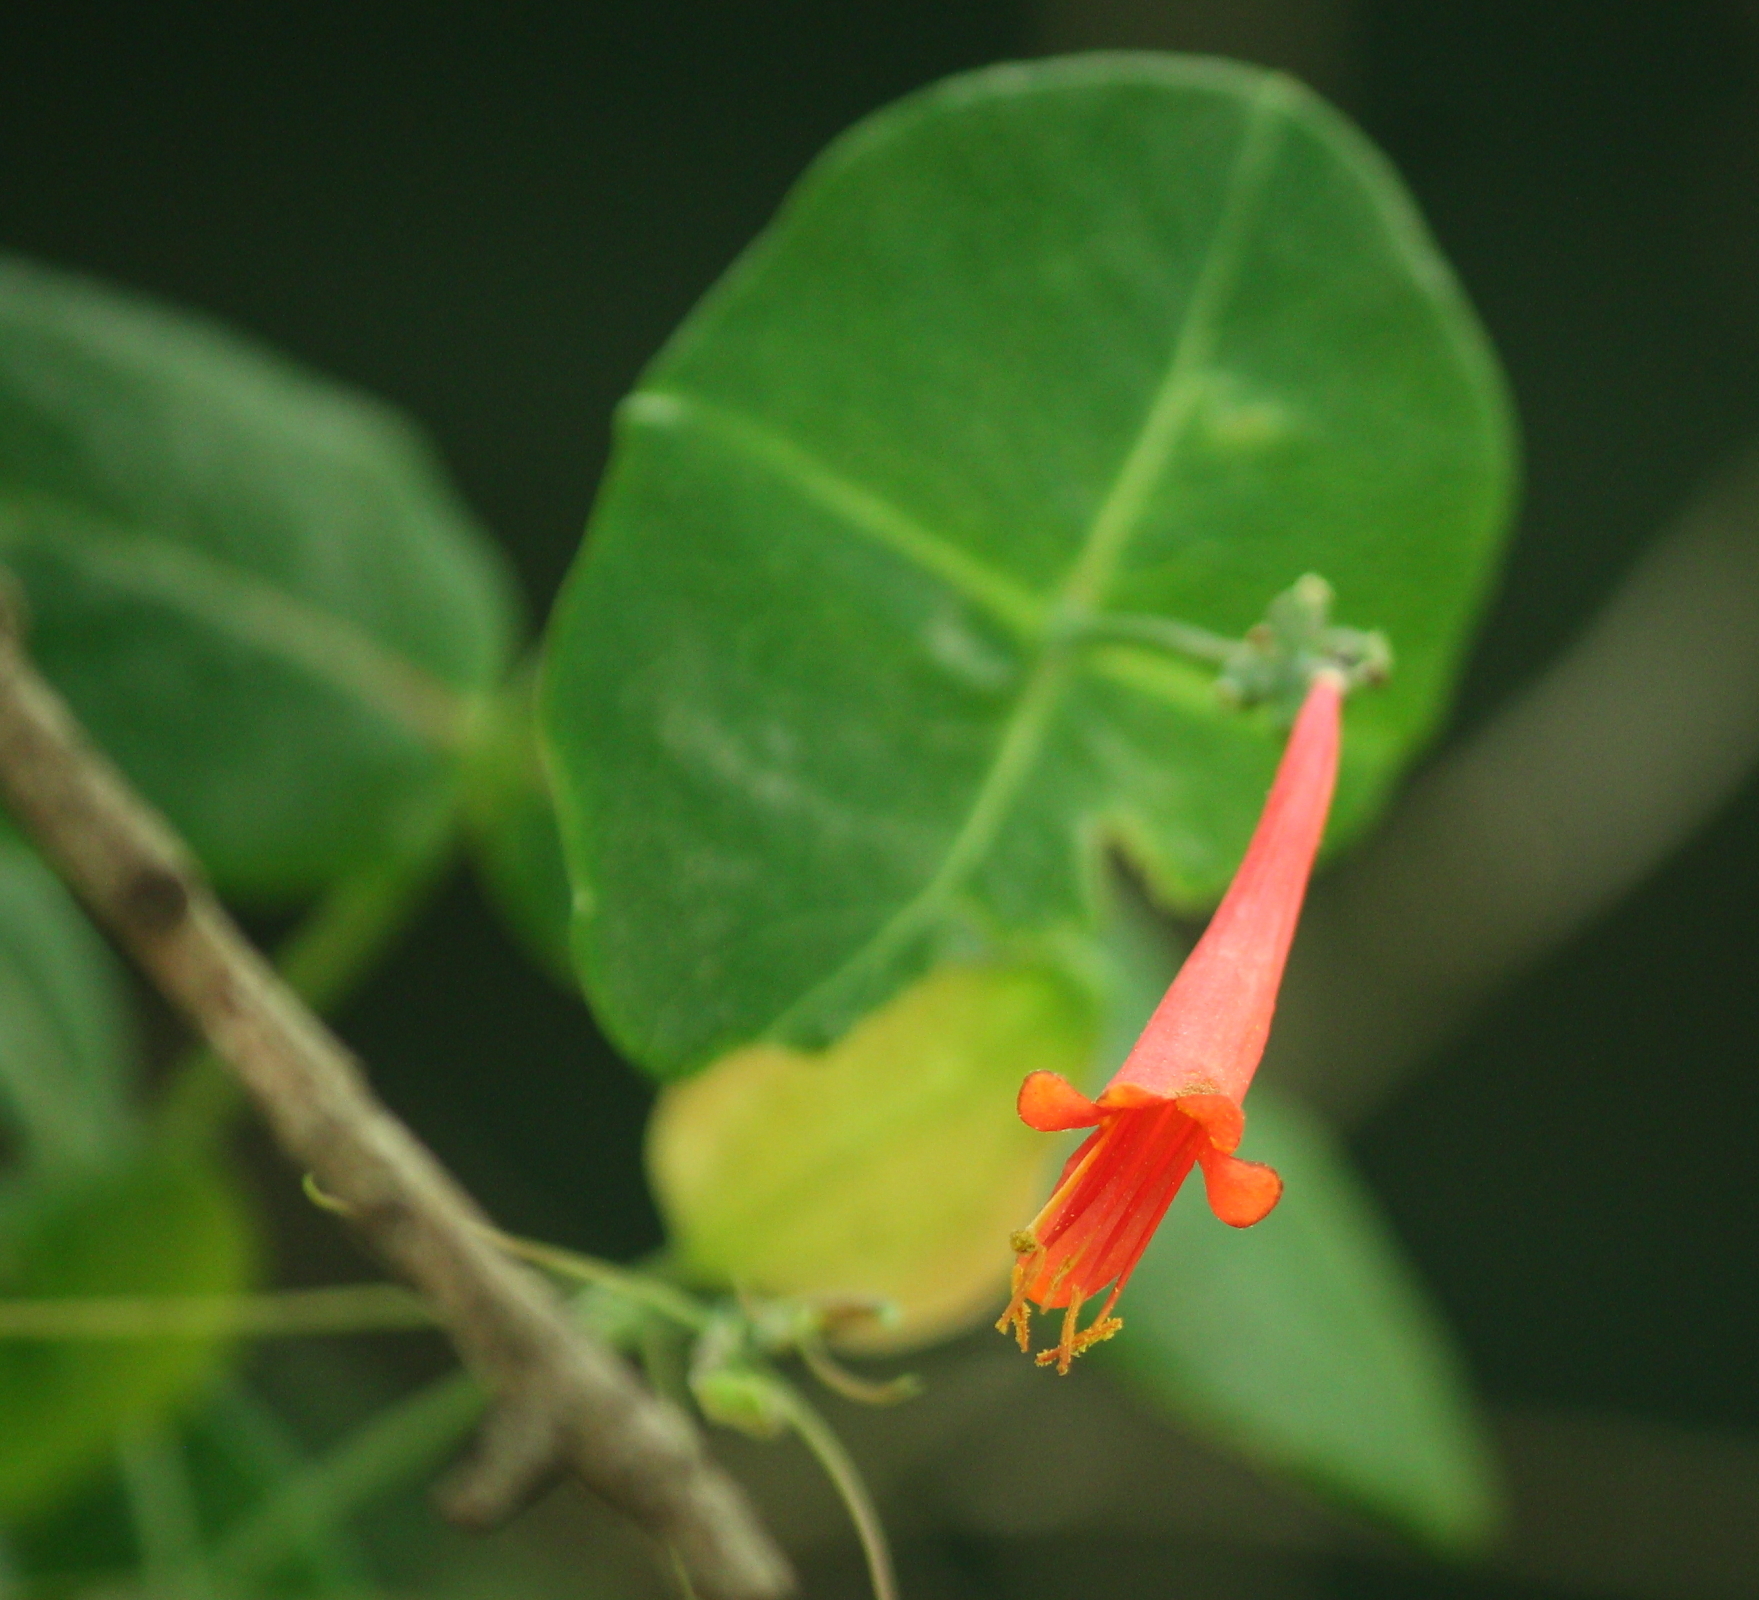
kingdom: Plantae
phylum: Tracheophyta
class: Magnoliopsida
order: Dipsacales
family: Caprifoliaceae
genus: Lonicera
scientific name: Lonicera sempervirens
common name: Coral honeysuckle
